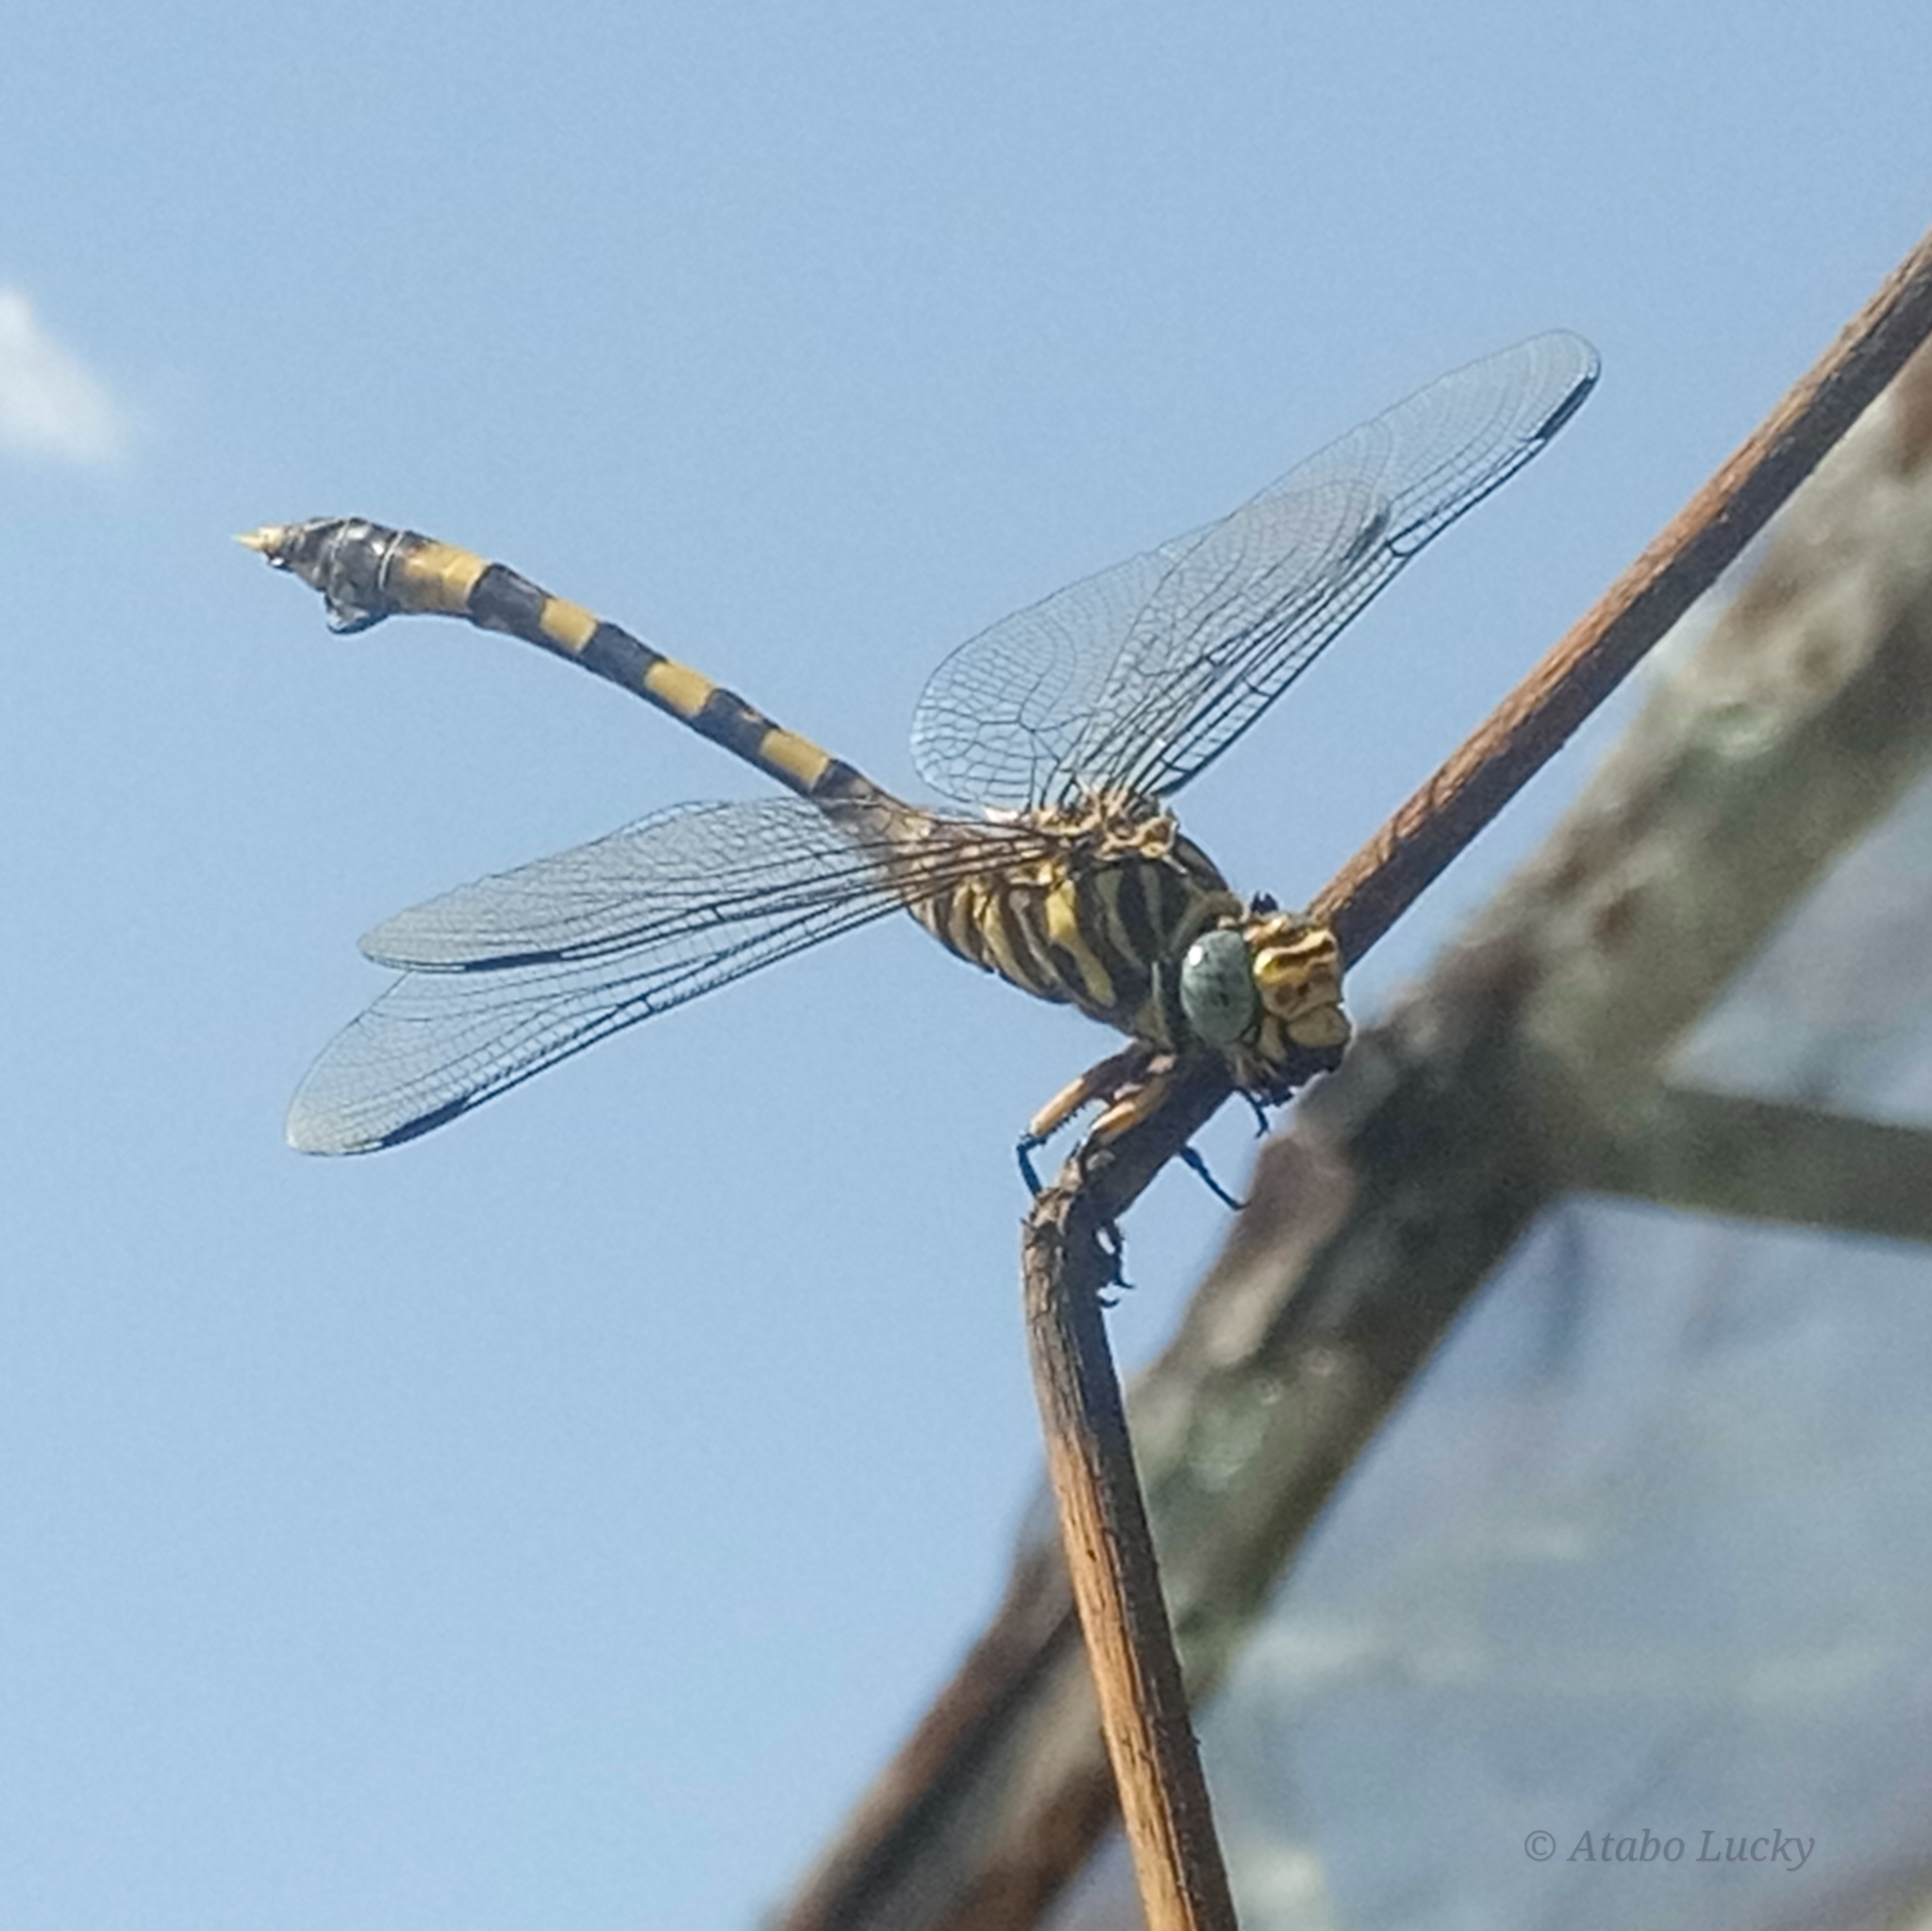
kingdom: Animalia
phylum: Arthropoda
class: Insecta
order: Odonata
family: Gomphidae
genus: Ictinogomphus
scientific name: Ictinogomphus ferox
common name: Common tiger
